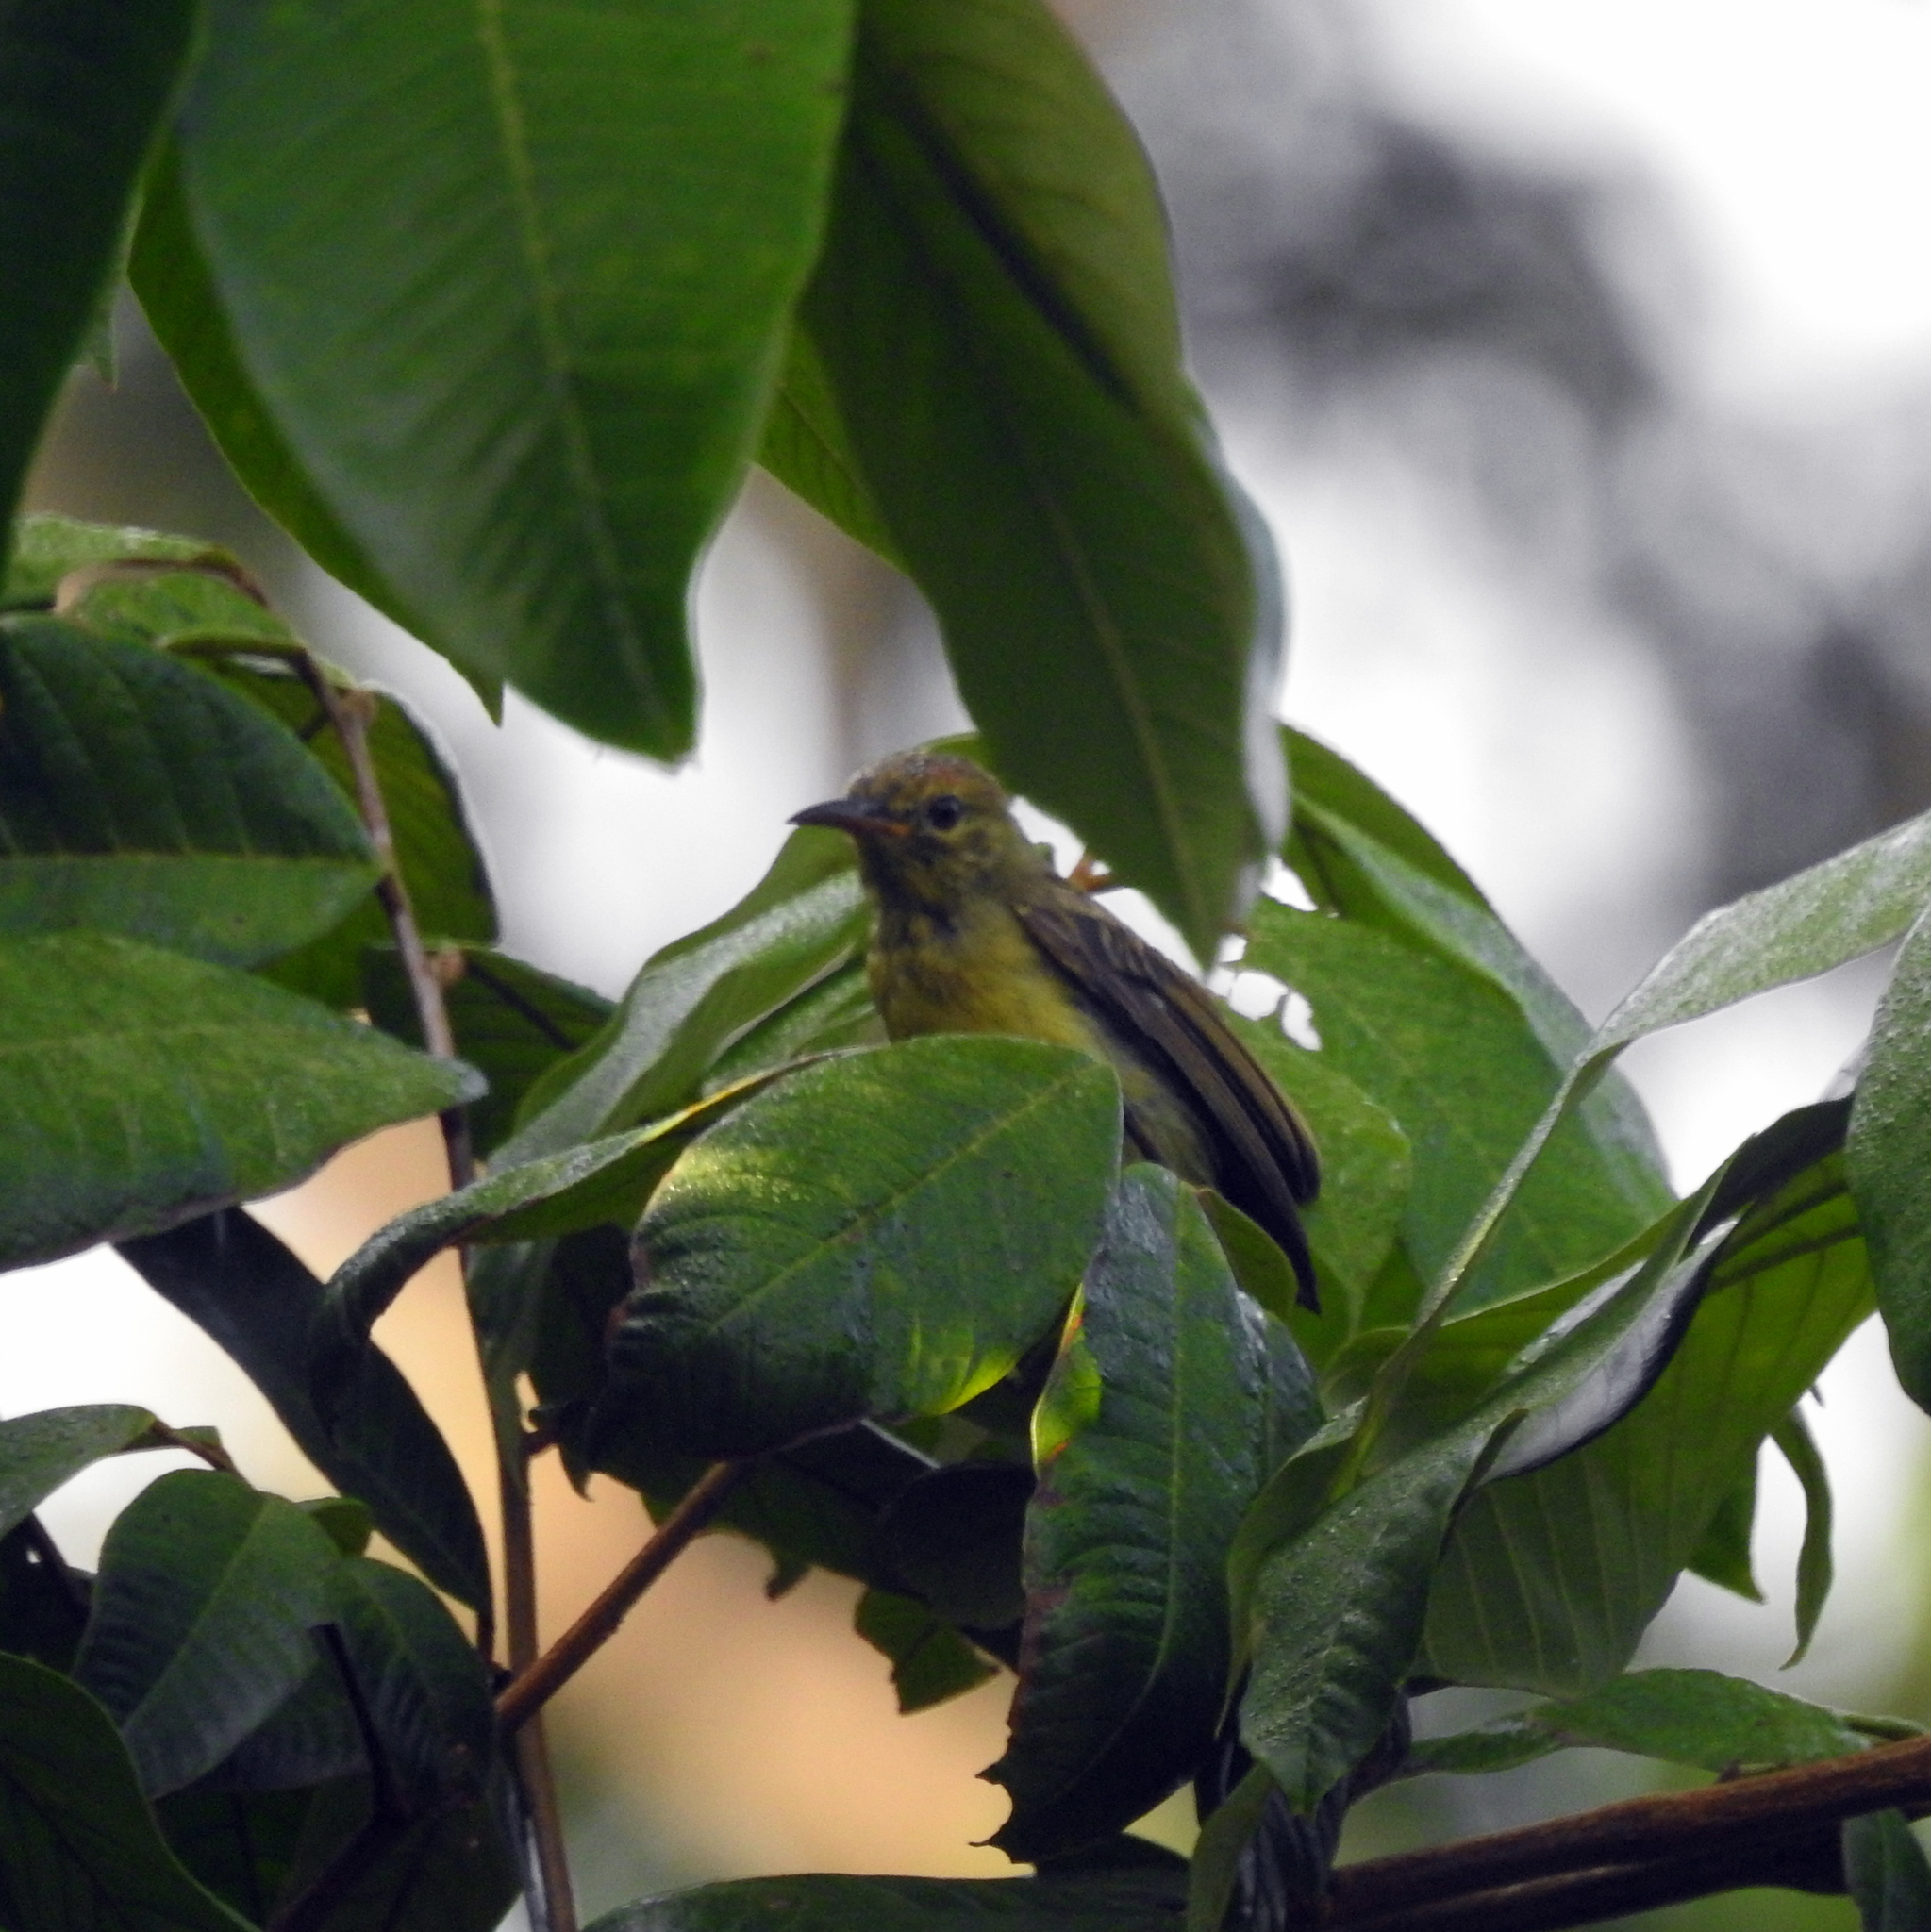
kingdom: Animalia
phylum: Chordata
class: Aves
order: Passeriformes
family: Nectariniidae
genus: Anthreptes
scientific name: Anthreptes malacensis
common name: Brown-throated sunbird
